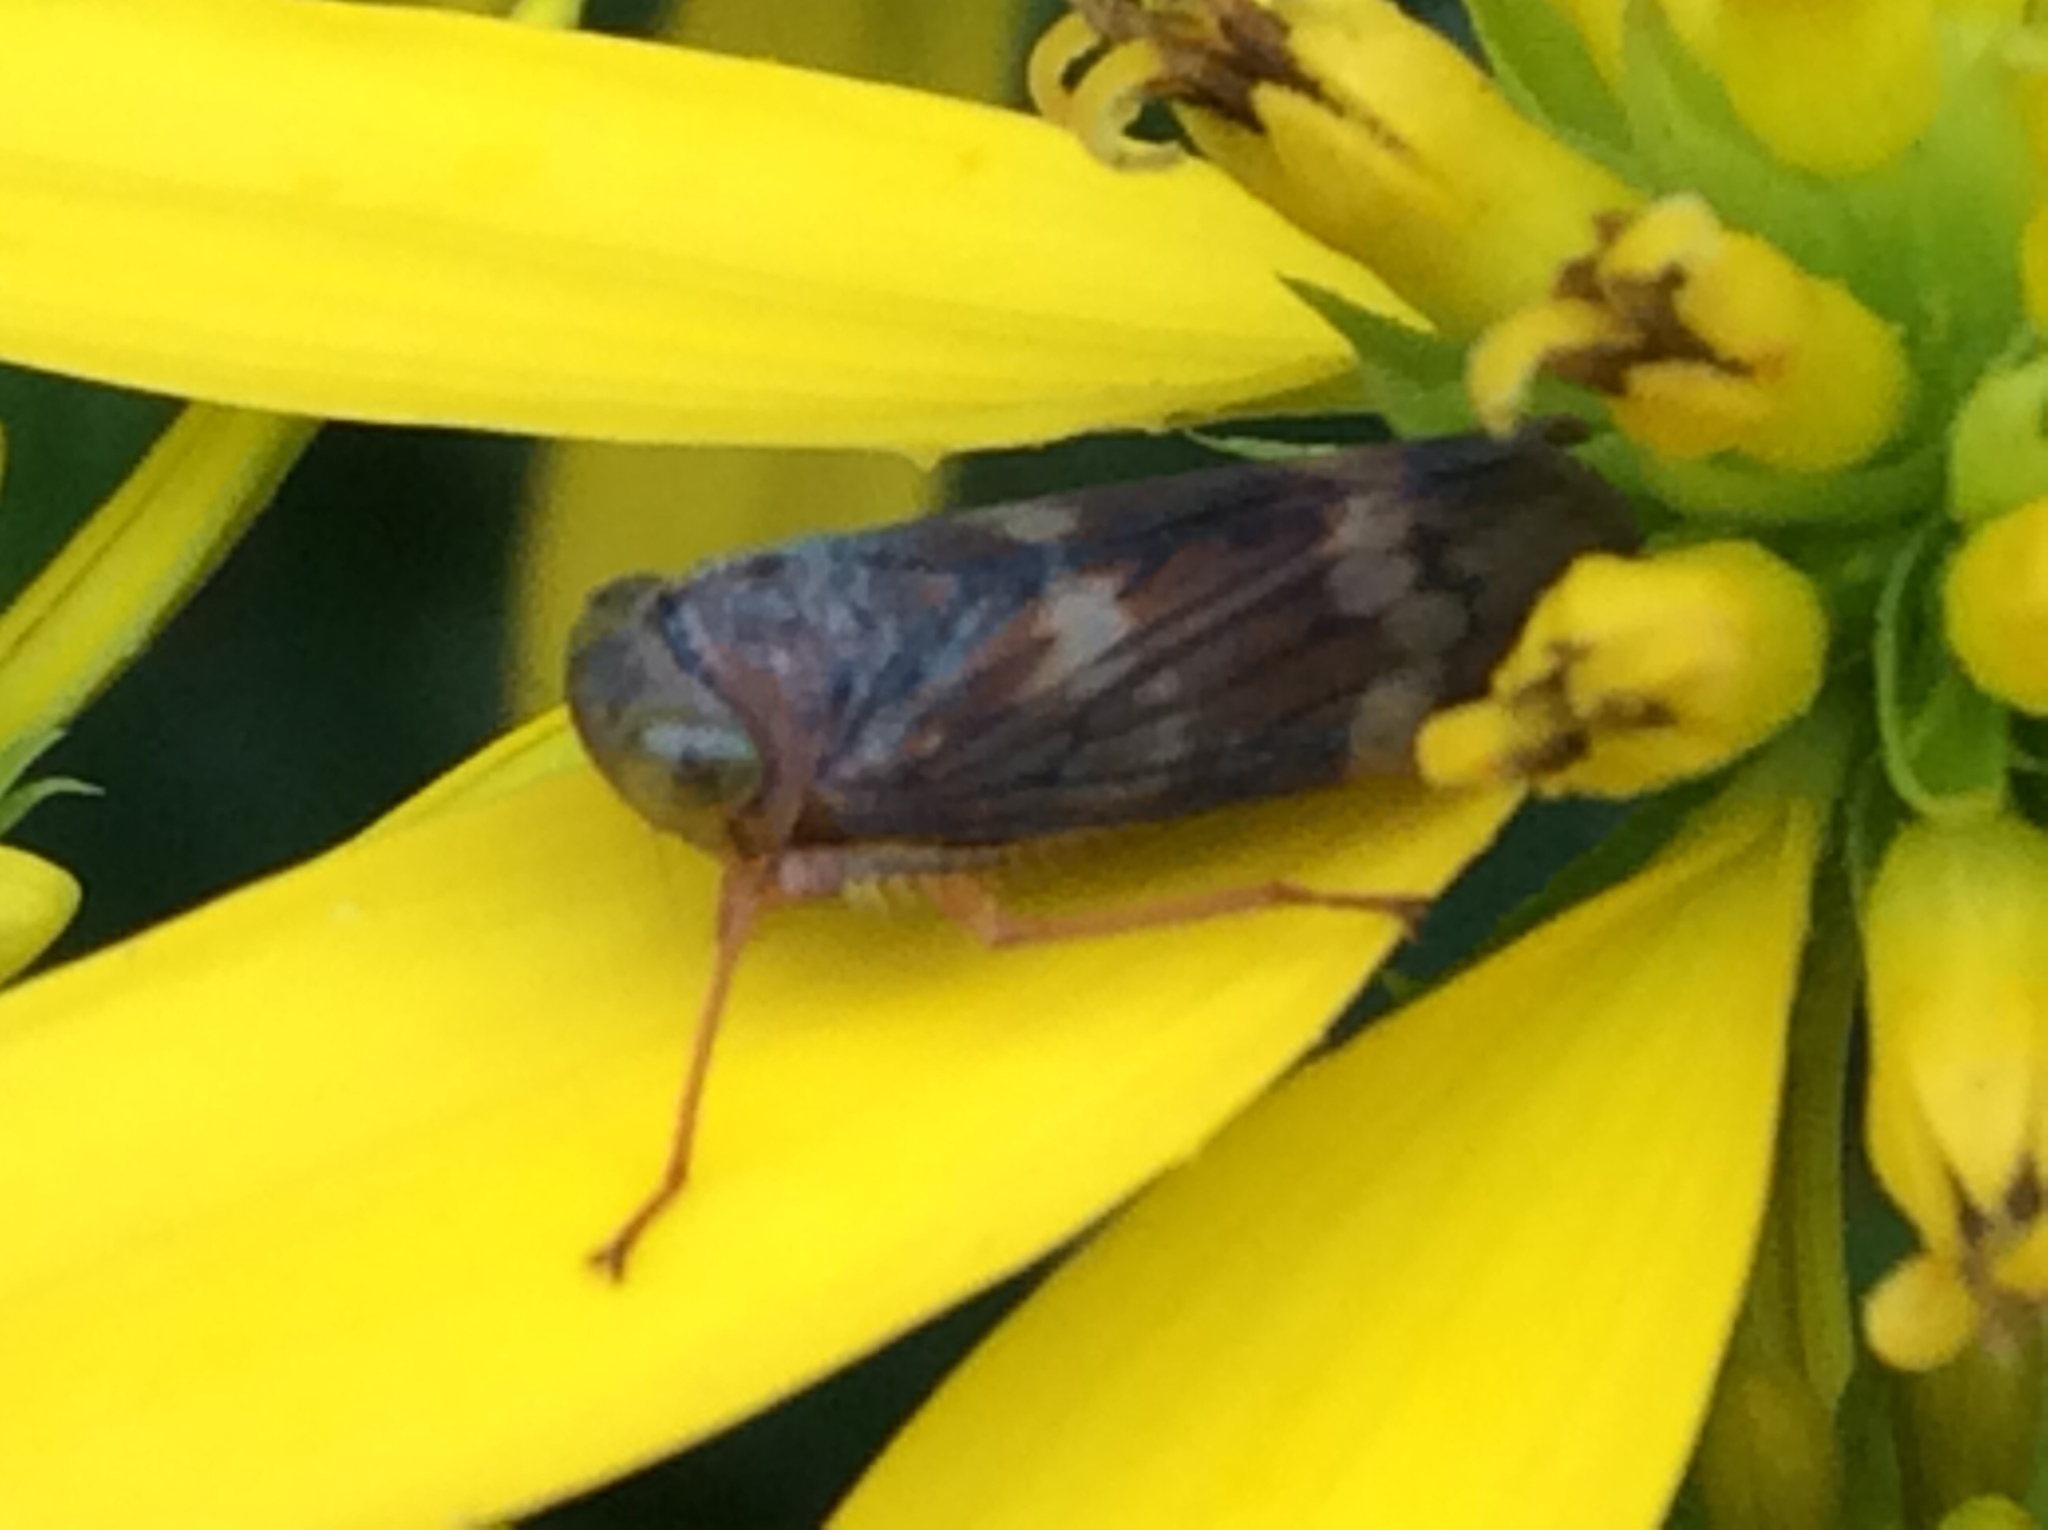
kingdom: Animalia
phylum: Arthropoda
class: Insecta
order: Hemiptera
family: Cicadellidae
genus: Jikradia
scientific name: Jikradia olitoria
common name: Coppery leafhopper
